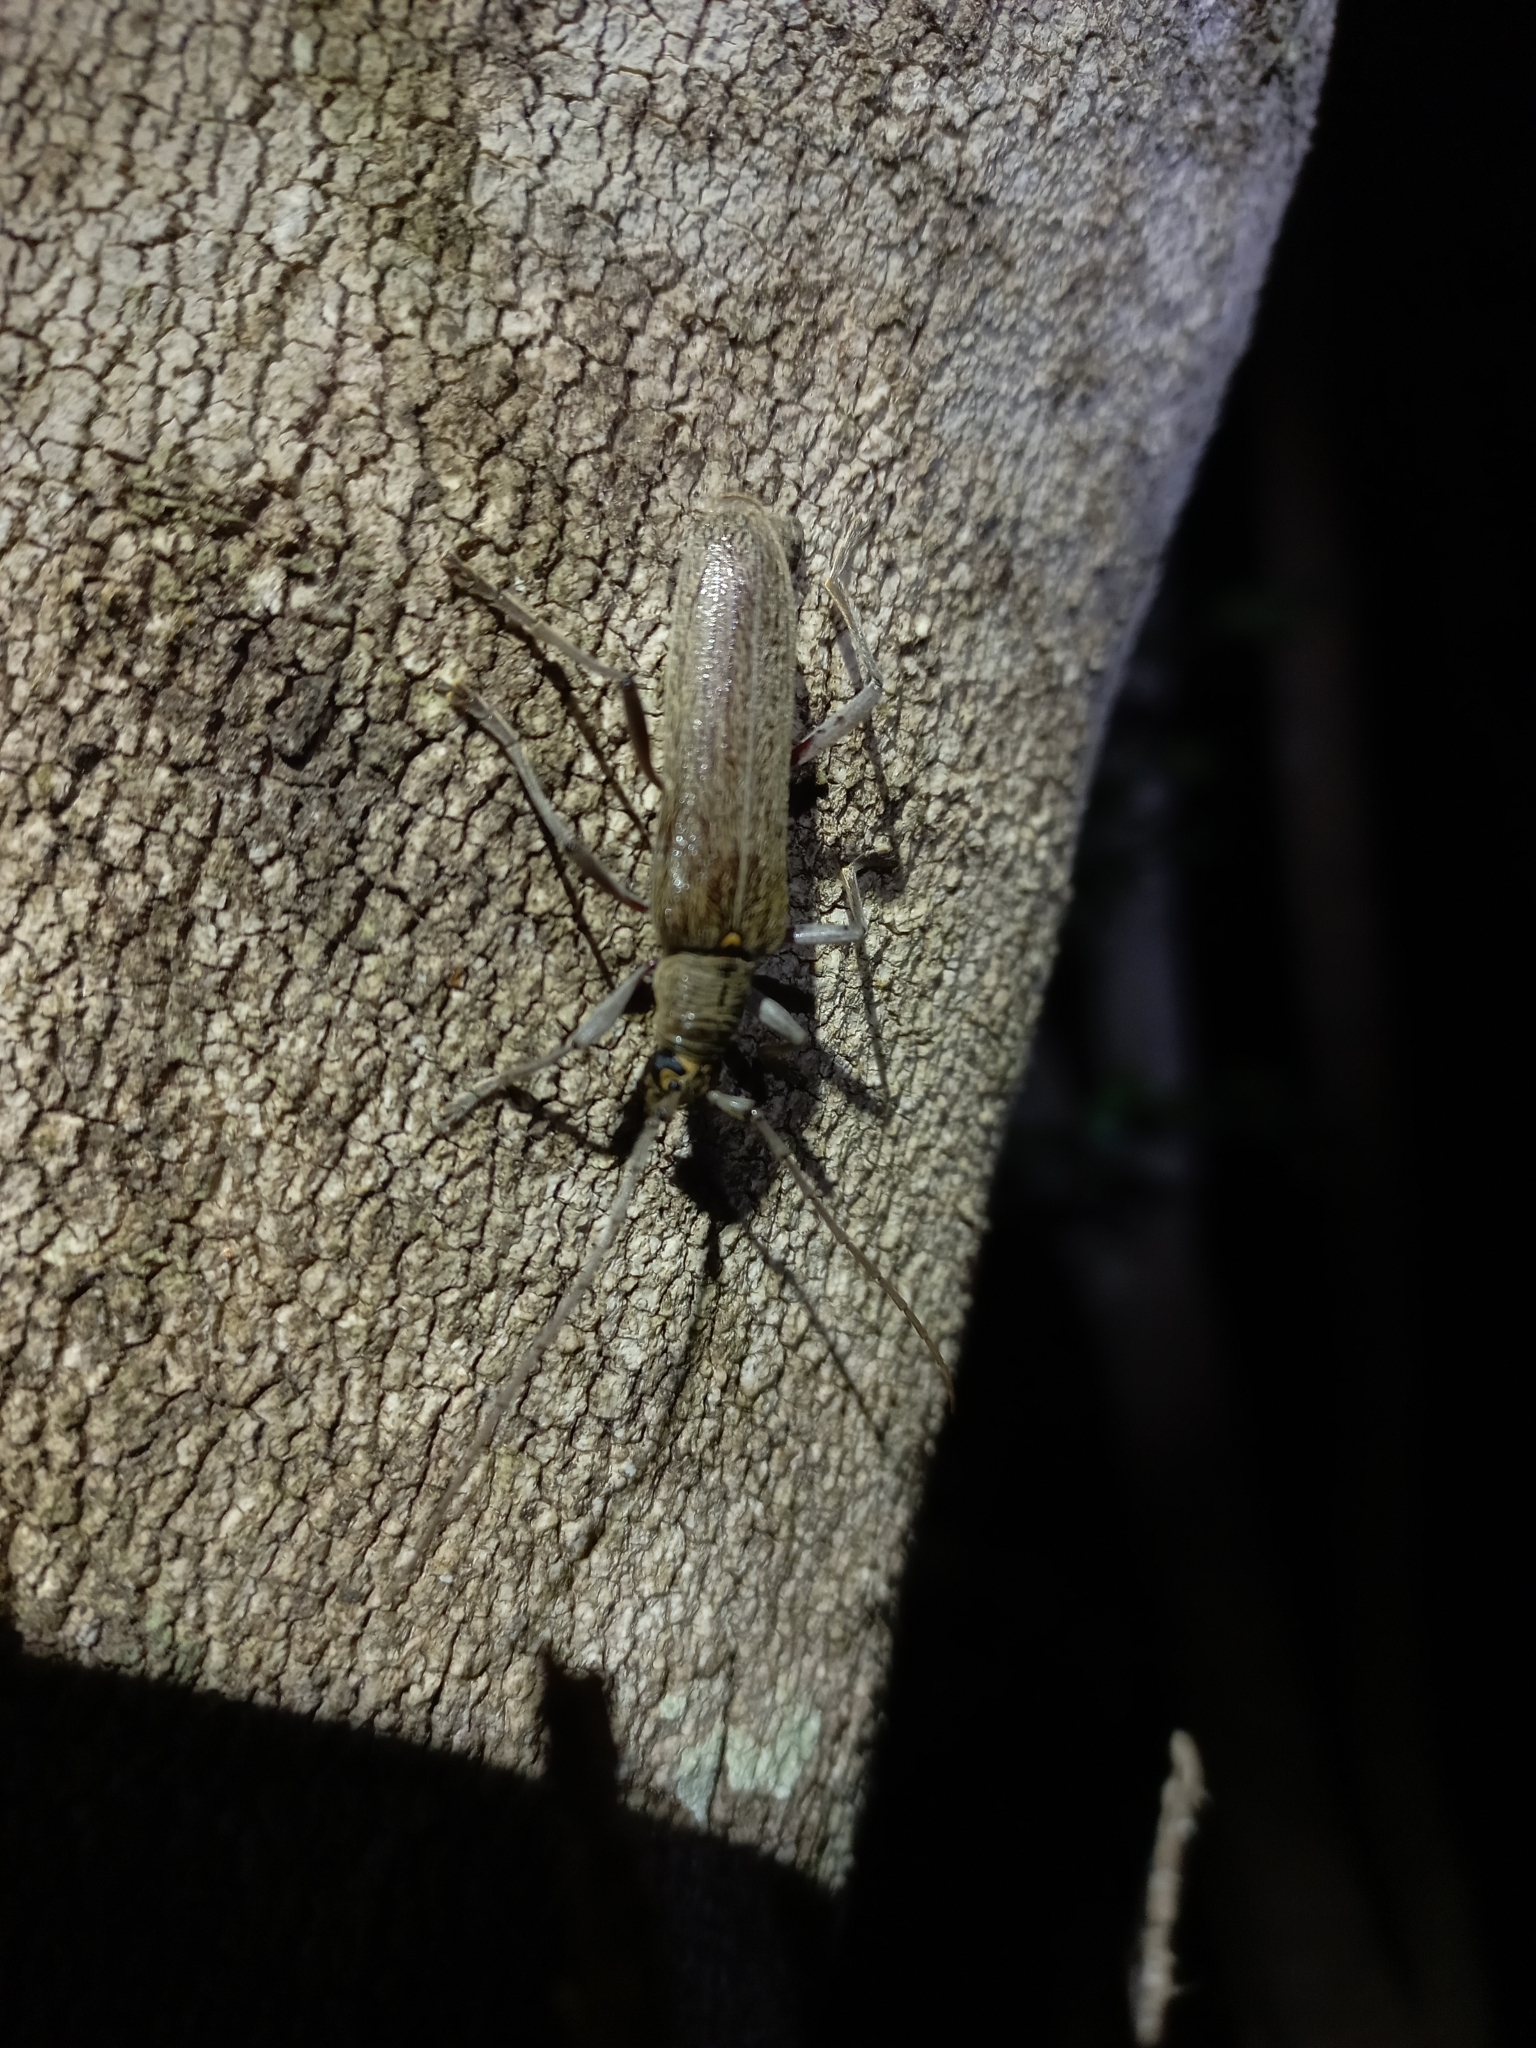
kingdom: Animalia
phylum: Arthropoda
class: Insecta
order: Coleoptera
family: Cerambycidae
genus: Oemona
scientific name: Oemona hirta
